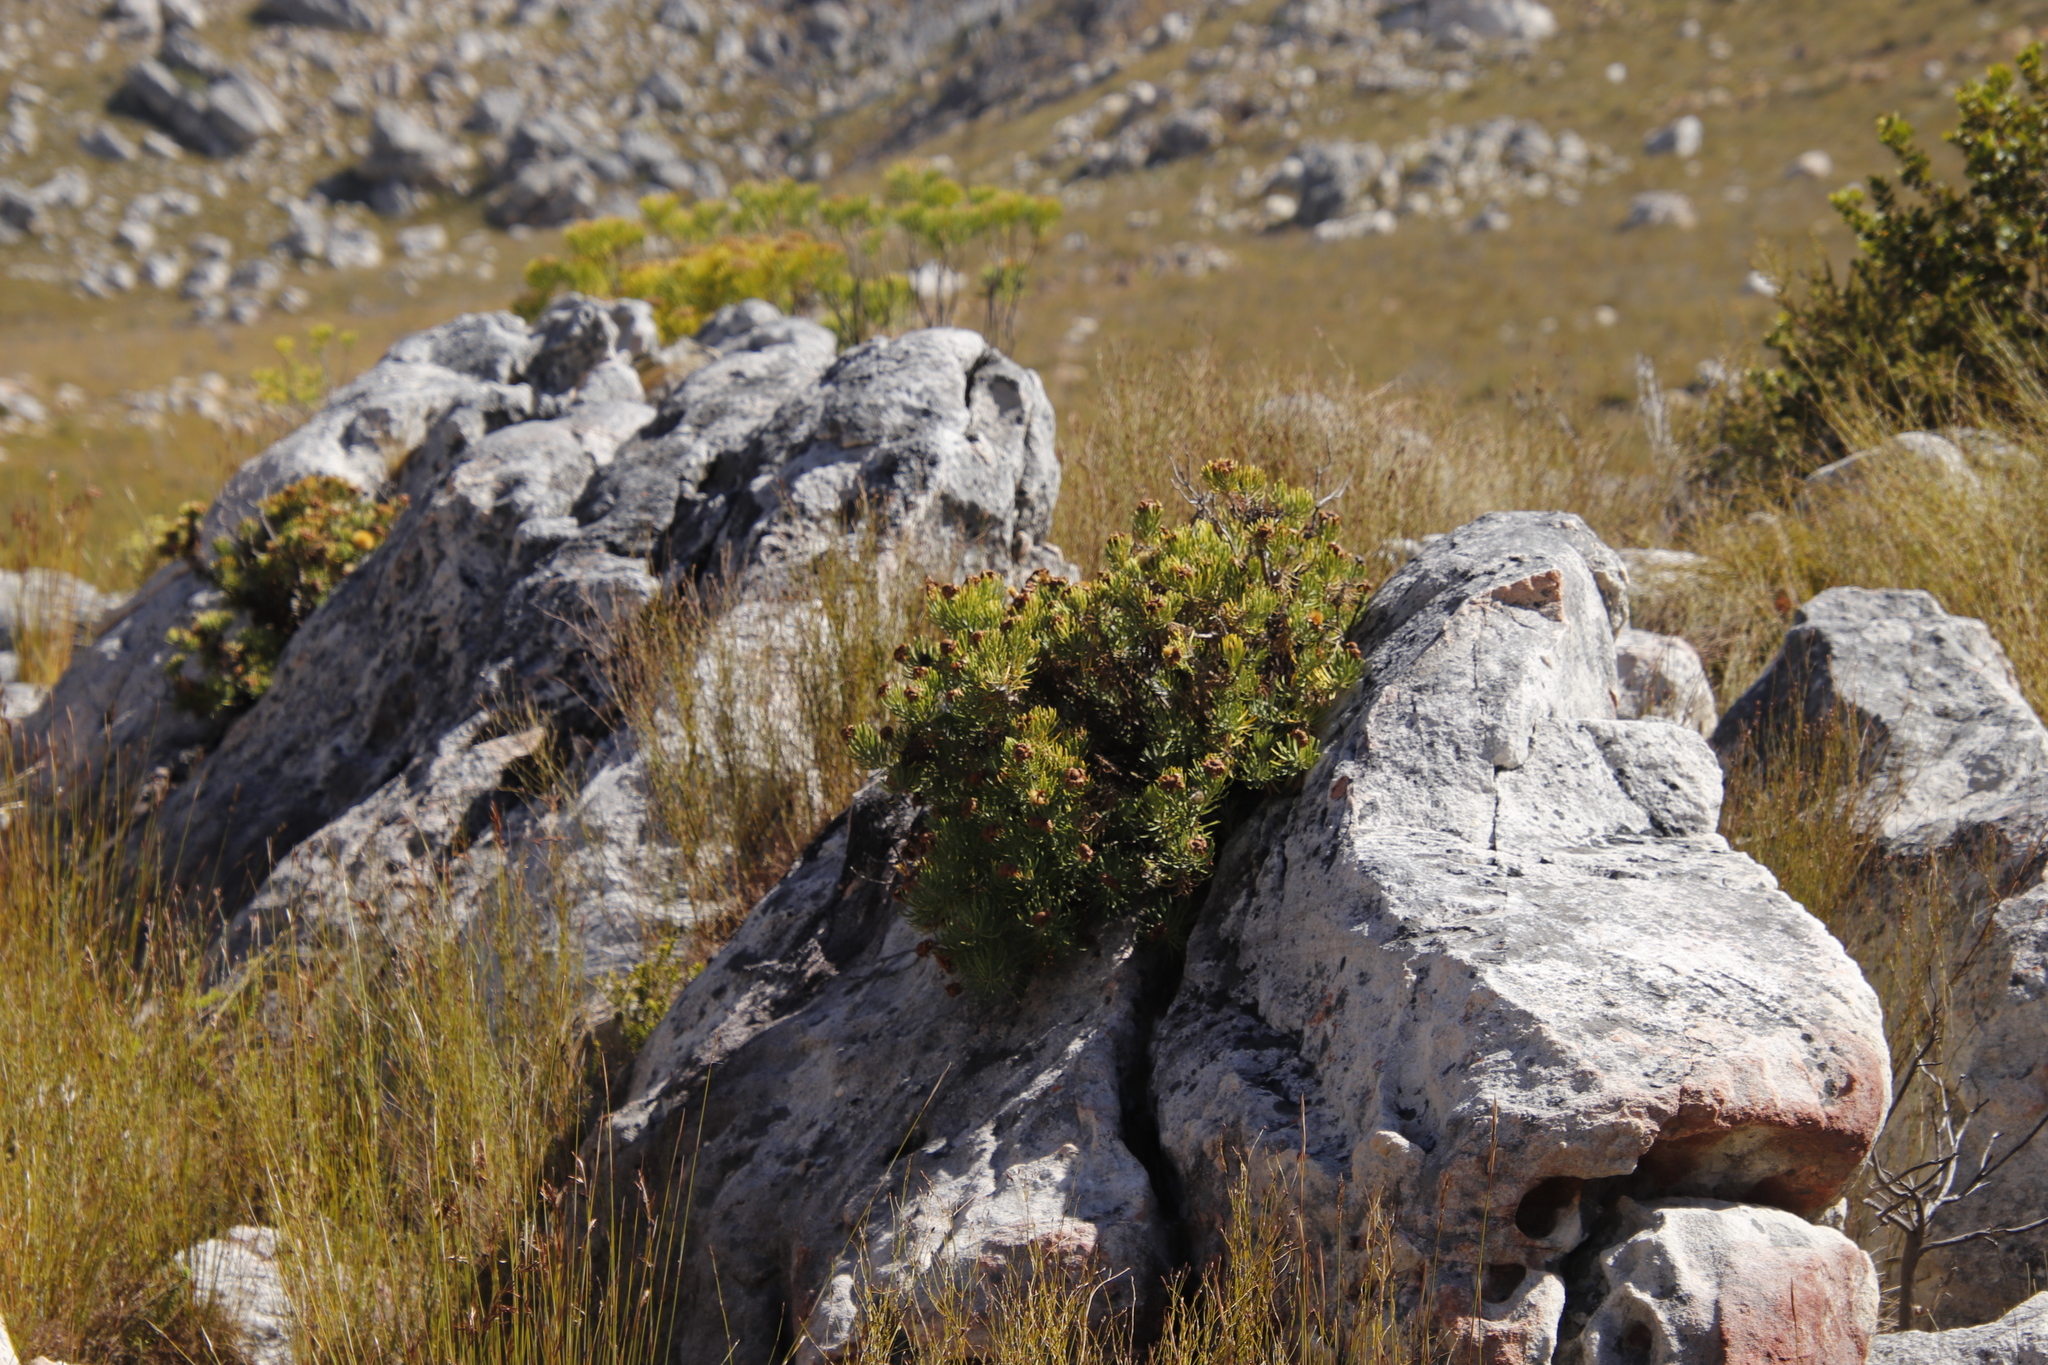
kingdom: Plantae
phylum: Tracheophyta
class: Magnoliopsida
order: Asterales
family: Asteraceae
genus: Heterolepis
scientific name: Heterolepis aliena
